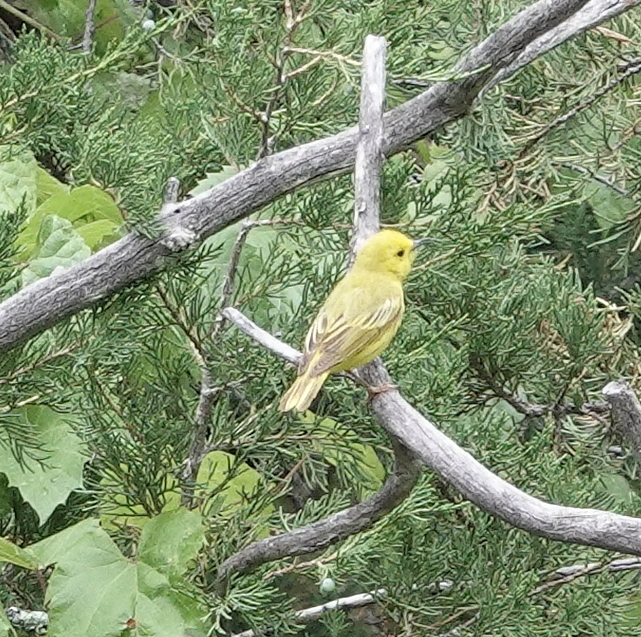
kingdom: Animalia
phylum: Chordata
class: Aves
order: Passeriformes
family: Parulidae
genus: Setophaga
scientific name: Setophaga petechia
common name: Yellow warbler
